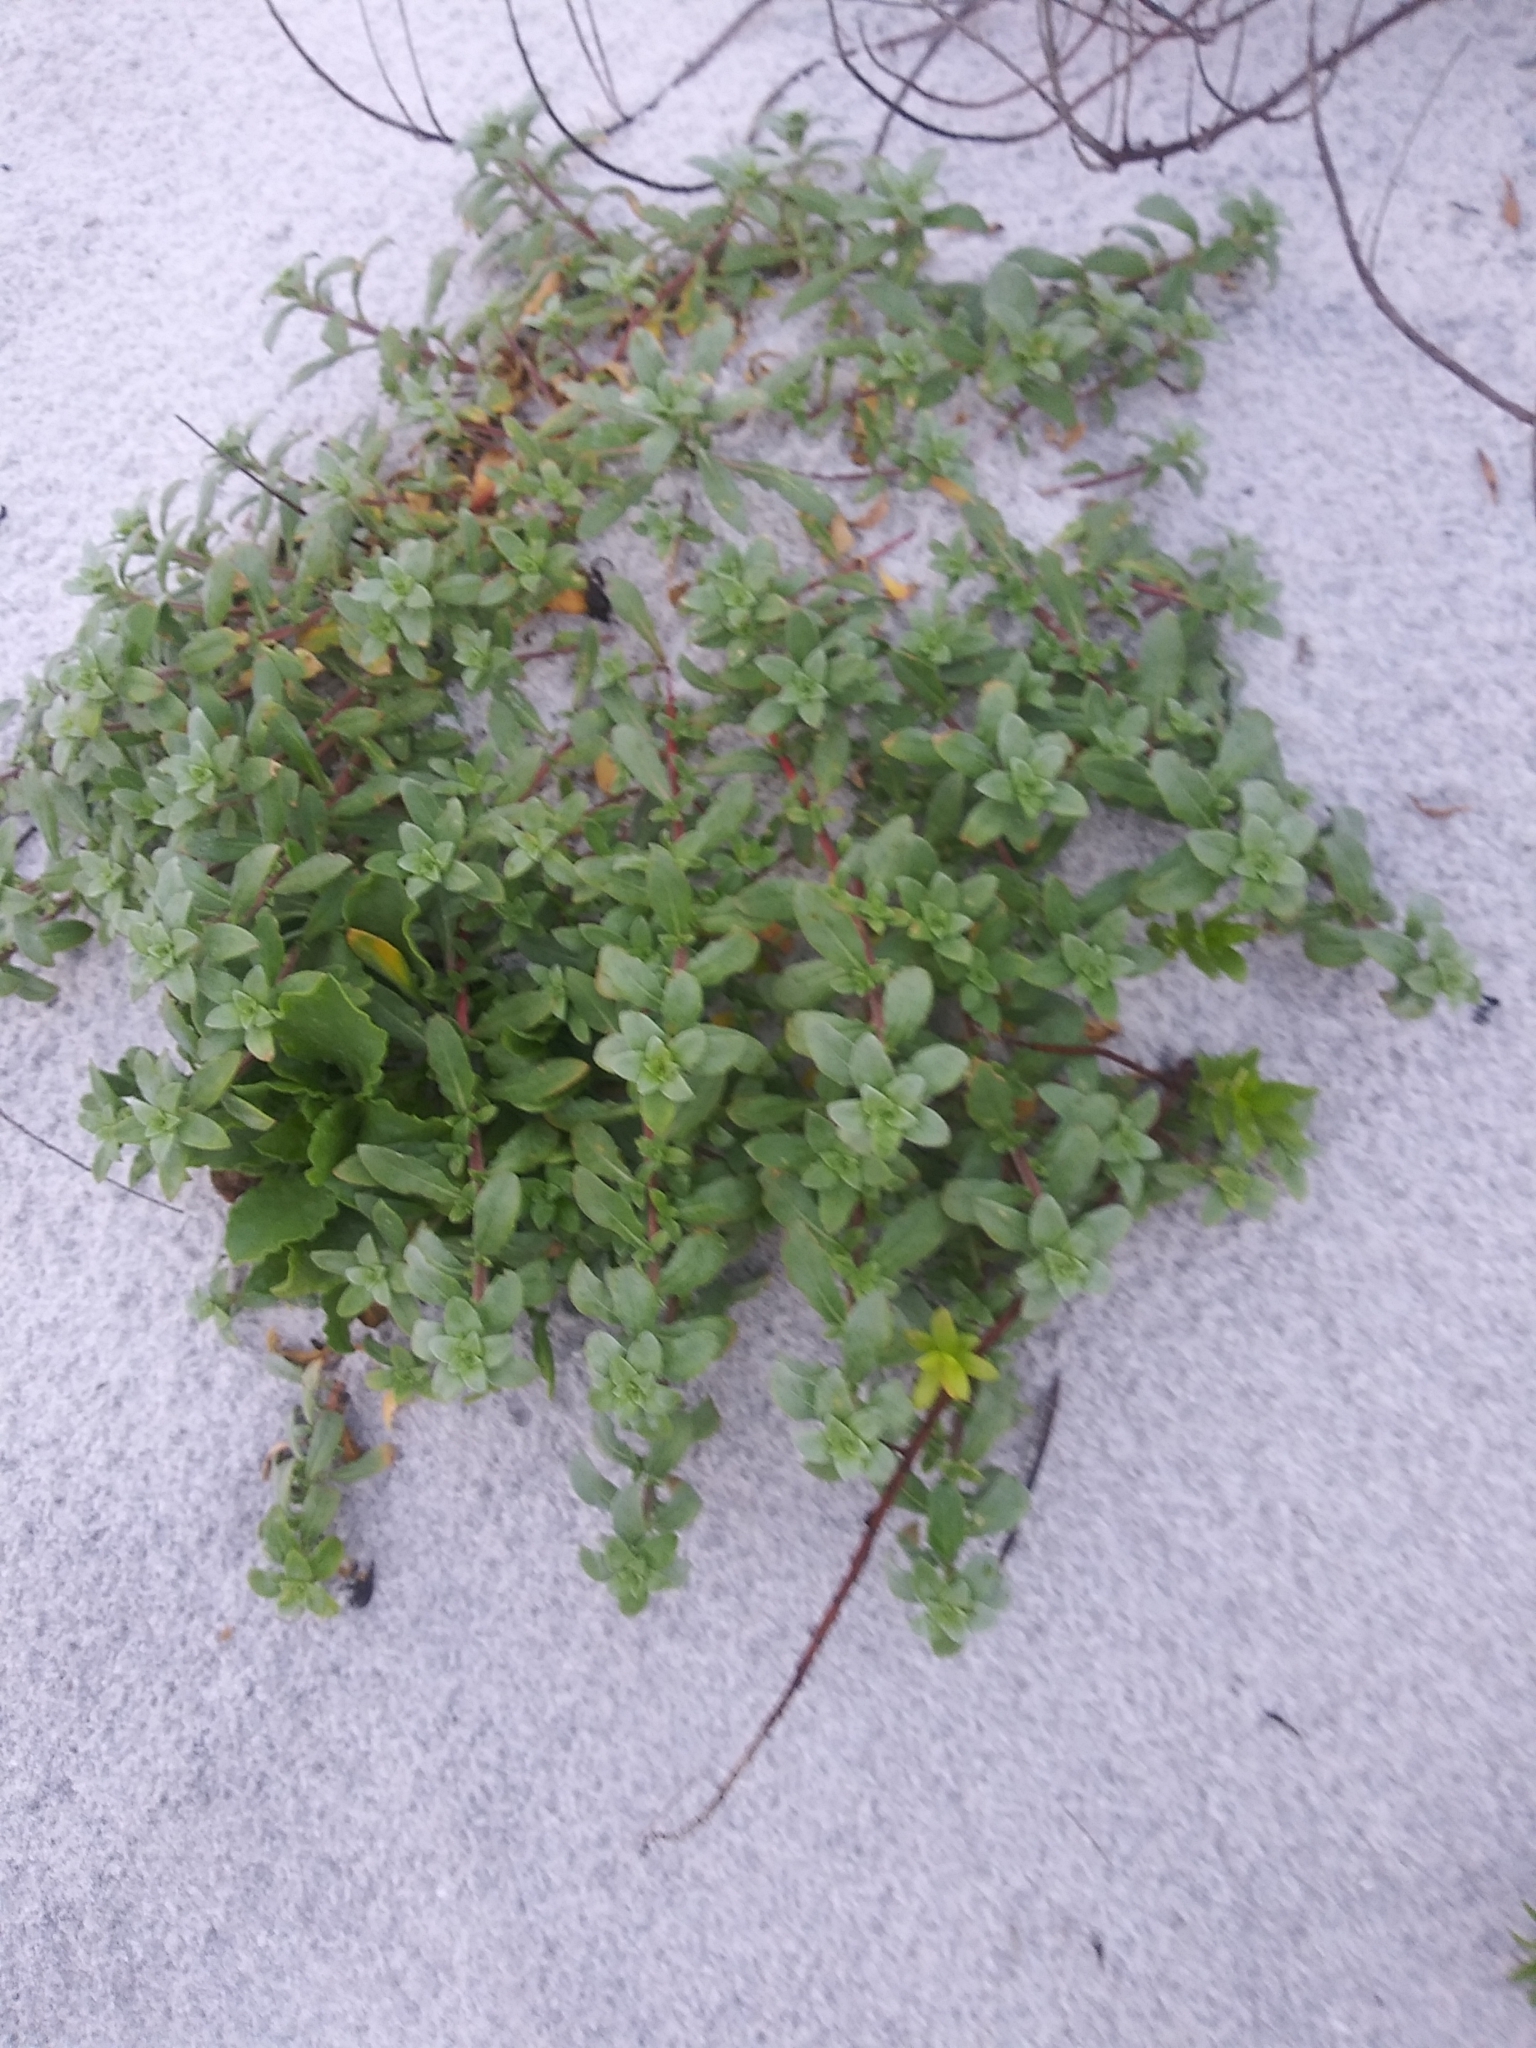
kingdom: Plantae
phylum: Tracheophyta
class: Magnoliopsida
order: Myrtales
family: Onagraceae
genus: Oenothera
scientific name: Oenothera humifusa
